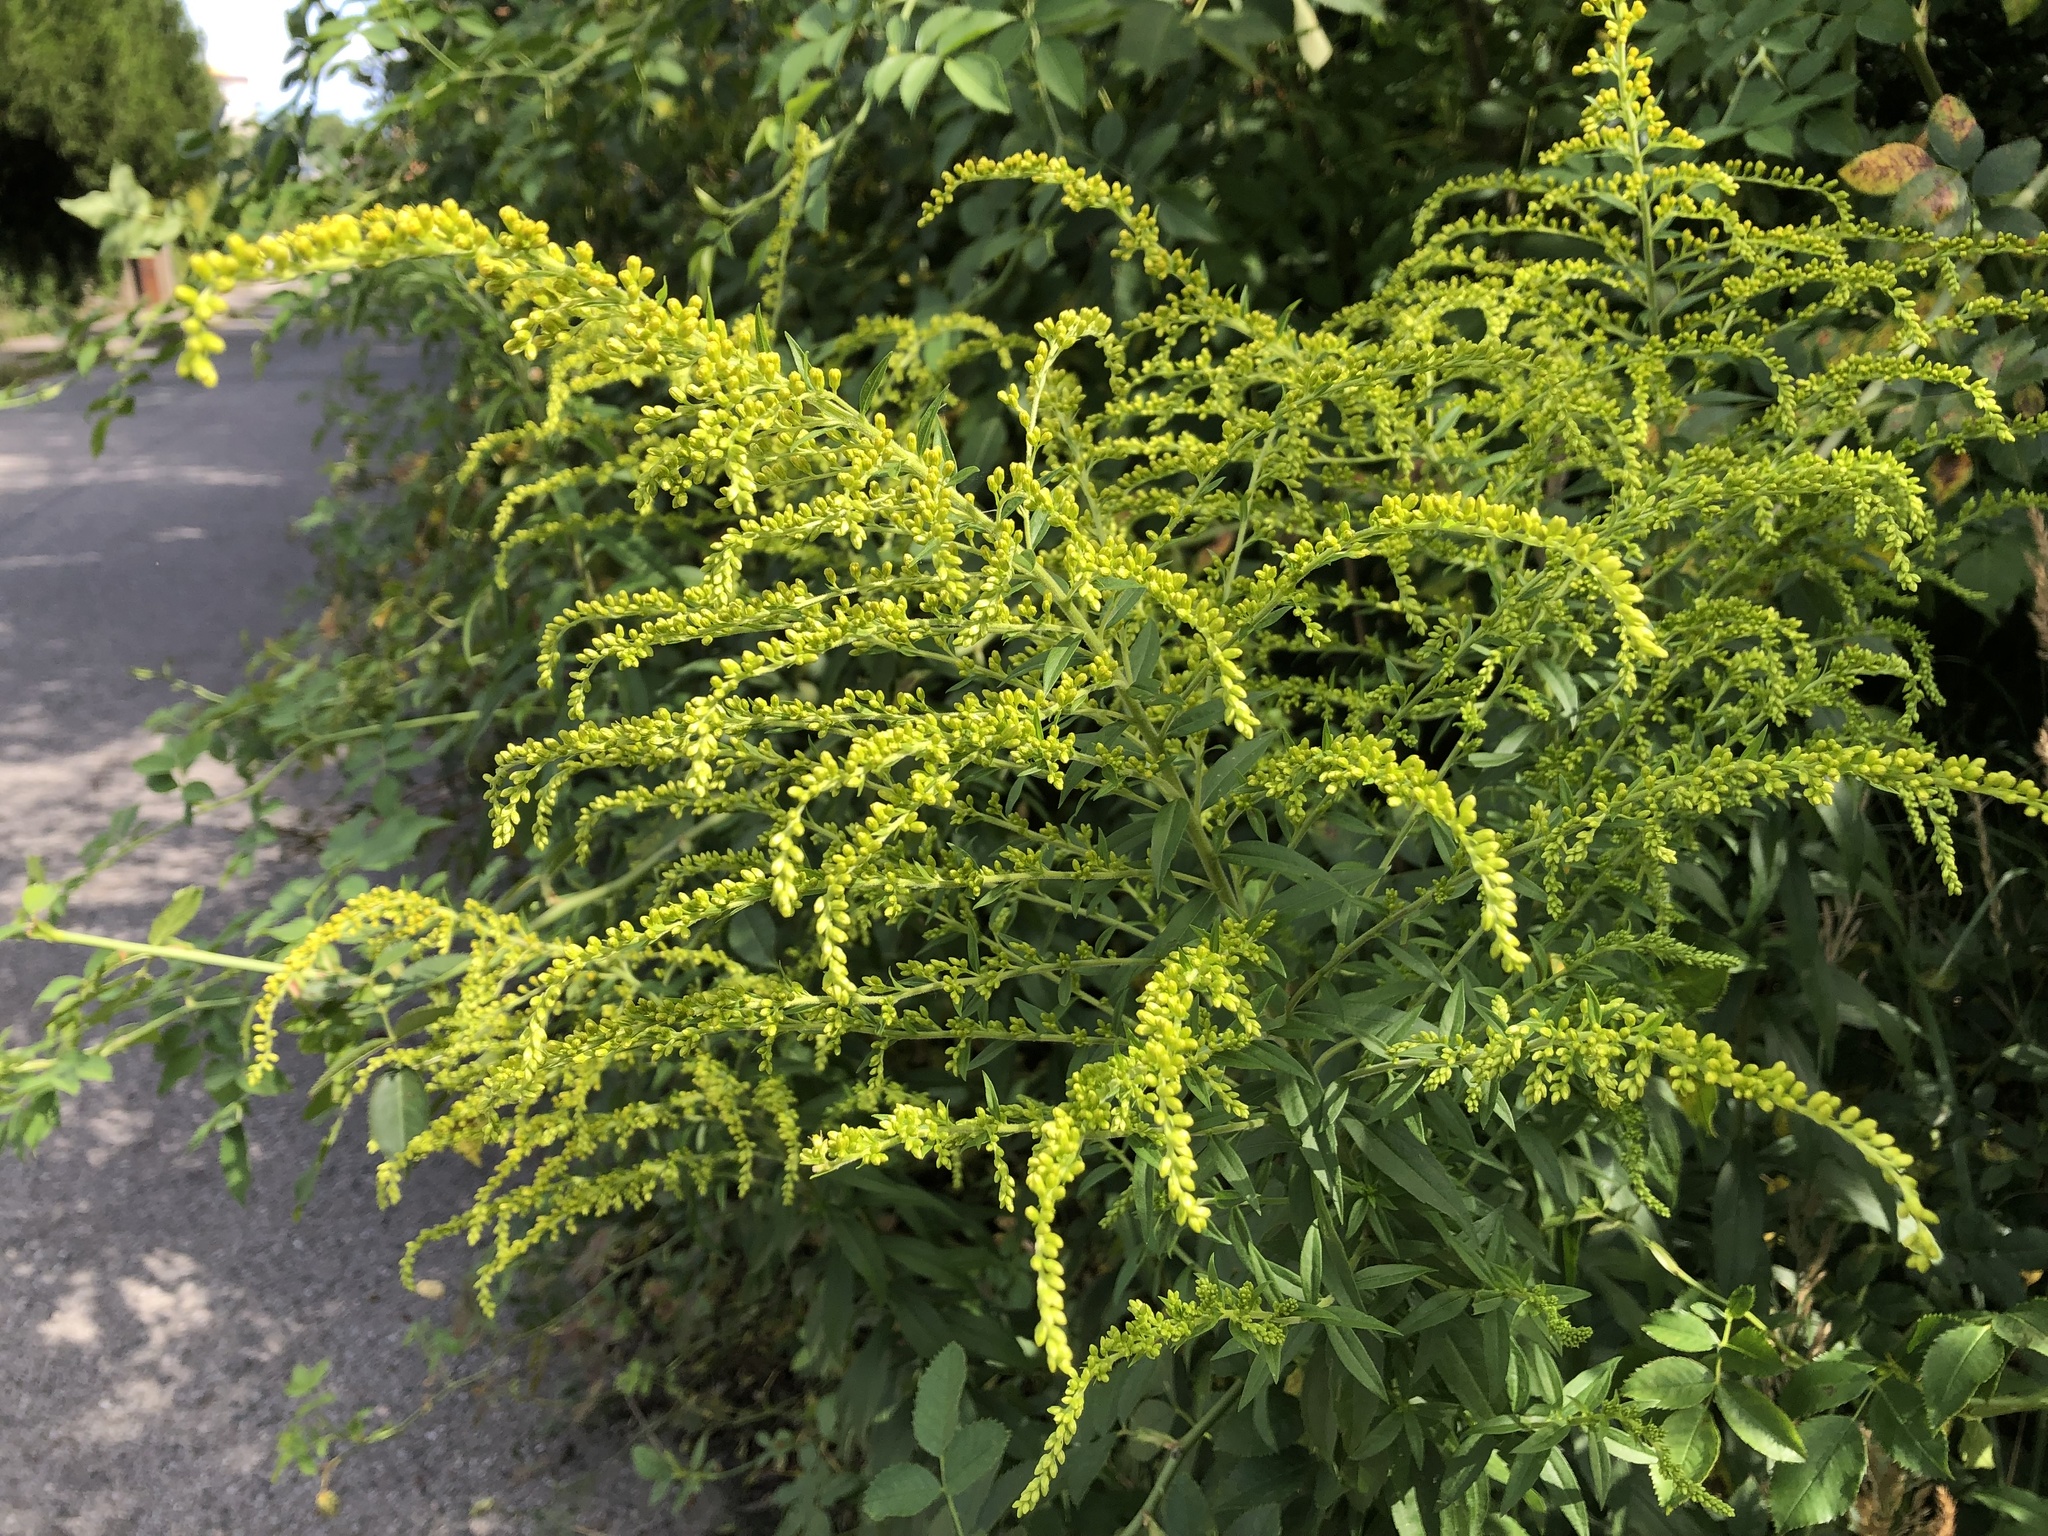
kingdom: Plantae
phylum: Tracheophyta
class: Magnoliopsida
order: Asterales
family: Asteraceae
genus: Solidago
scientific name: Solidago canadensis
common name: Canada goldenrod
